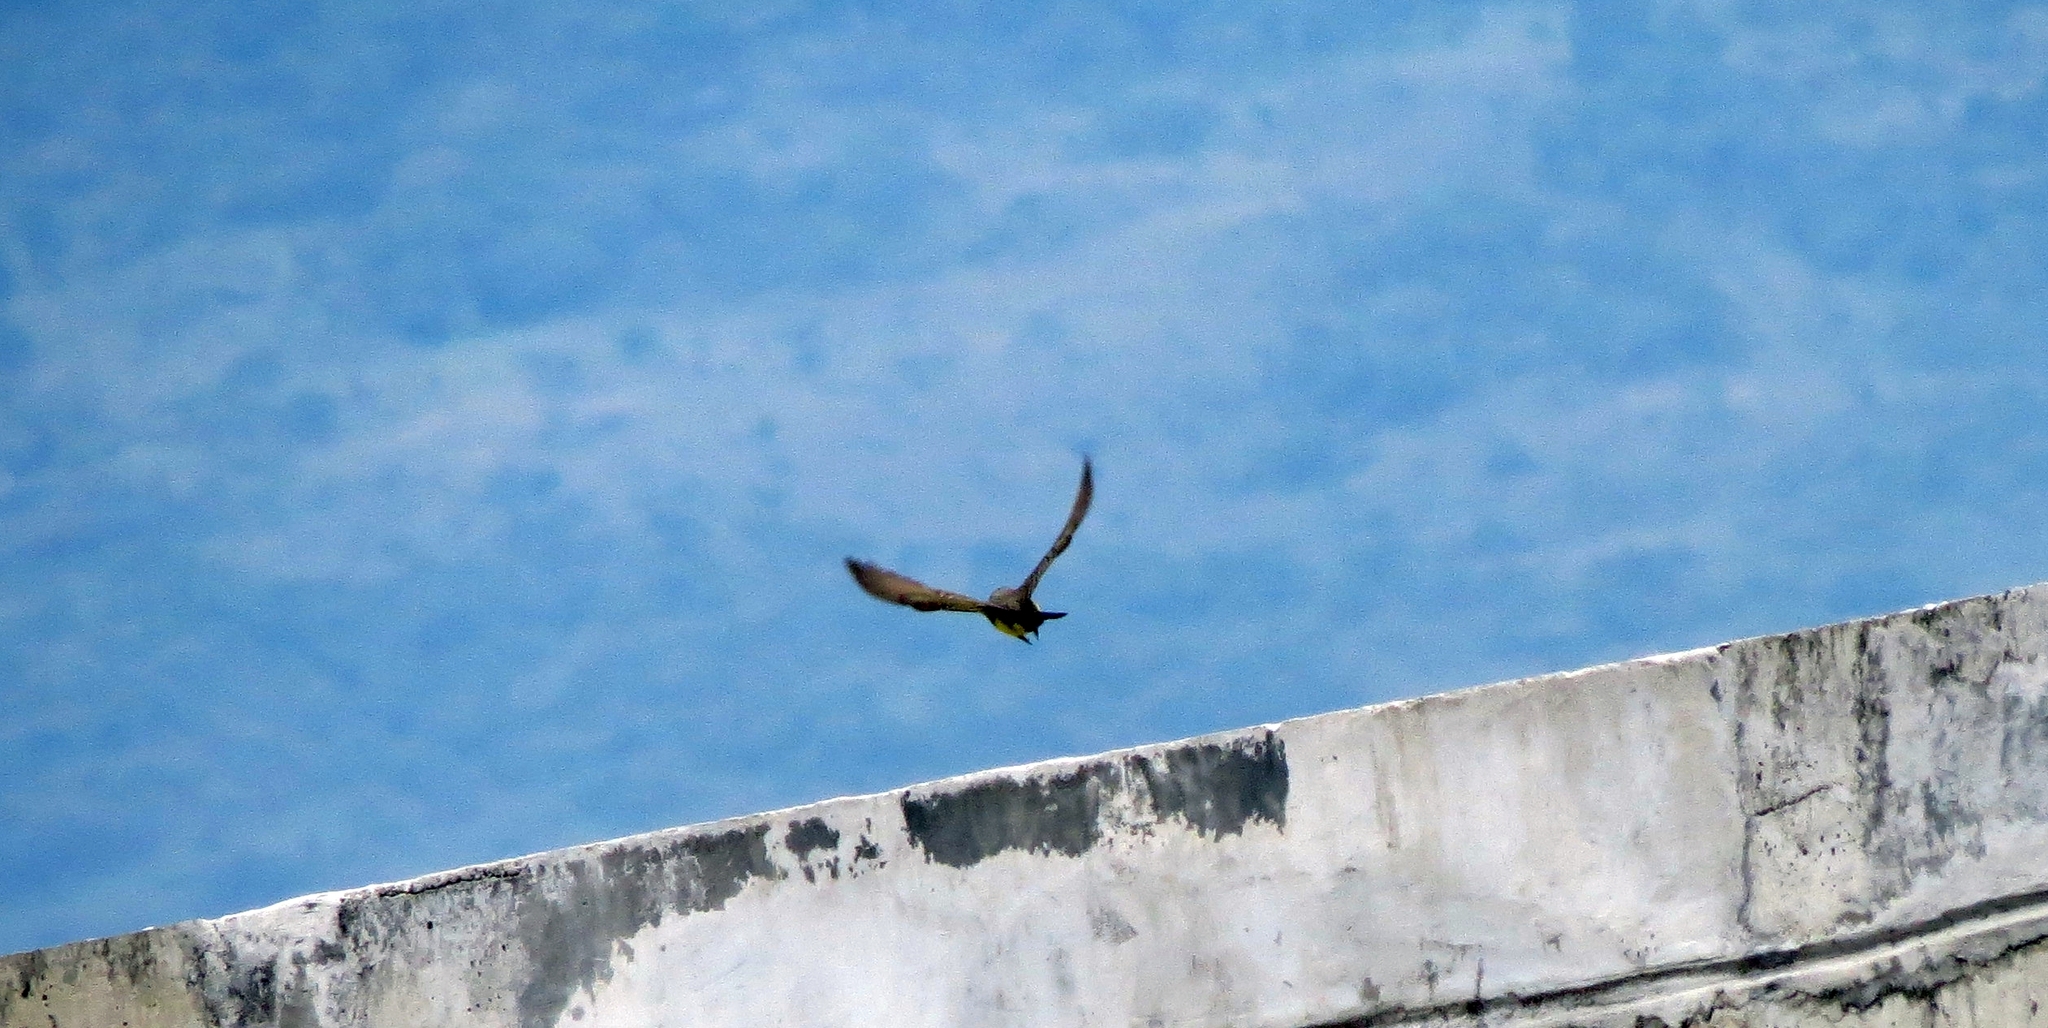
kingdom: Animalia
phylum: Chordata
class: Aves
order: Passeriformes
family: Tyrannidae
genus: Tyrannus
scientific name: Tyrannus melancholicus
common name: Tropical kingbird
